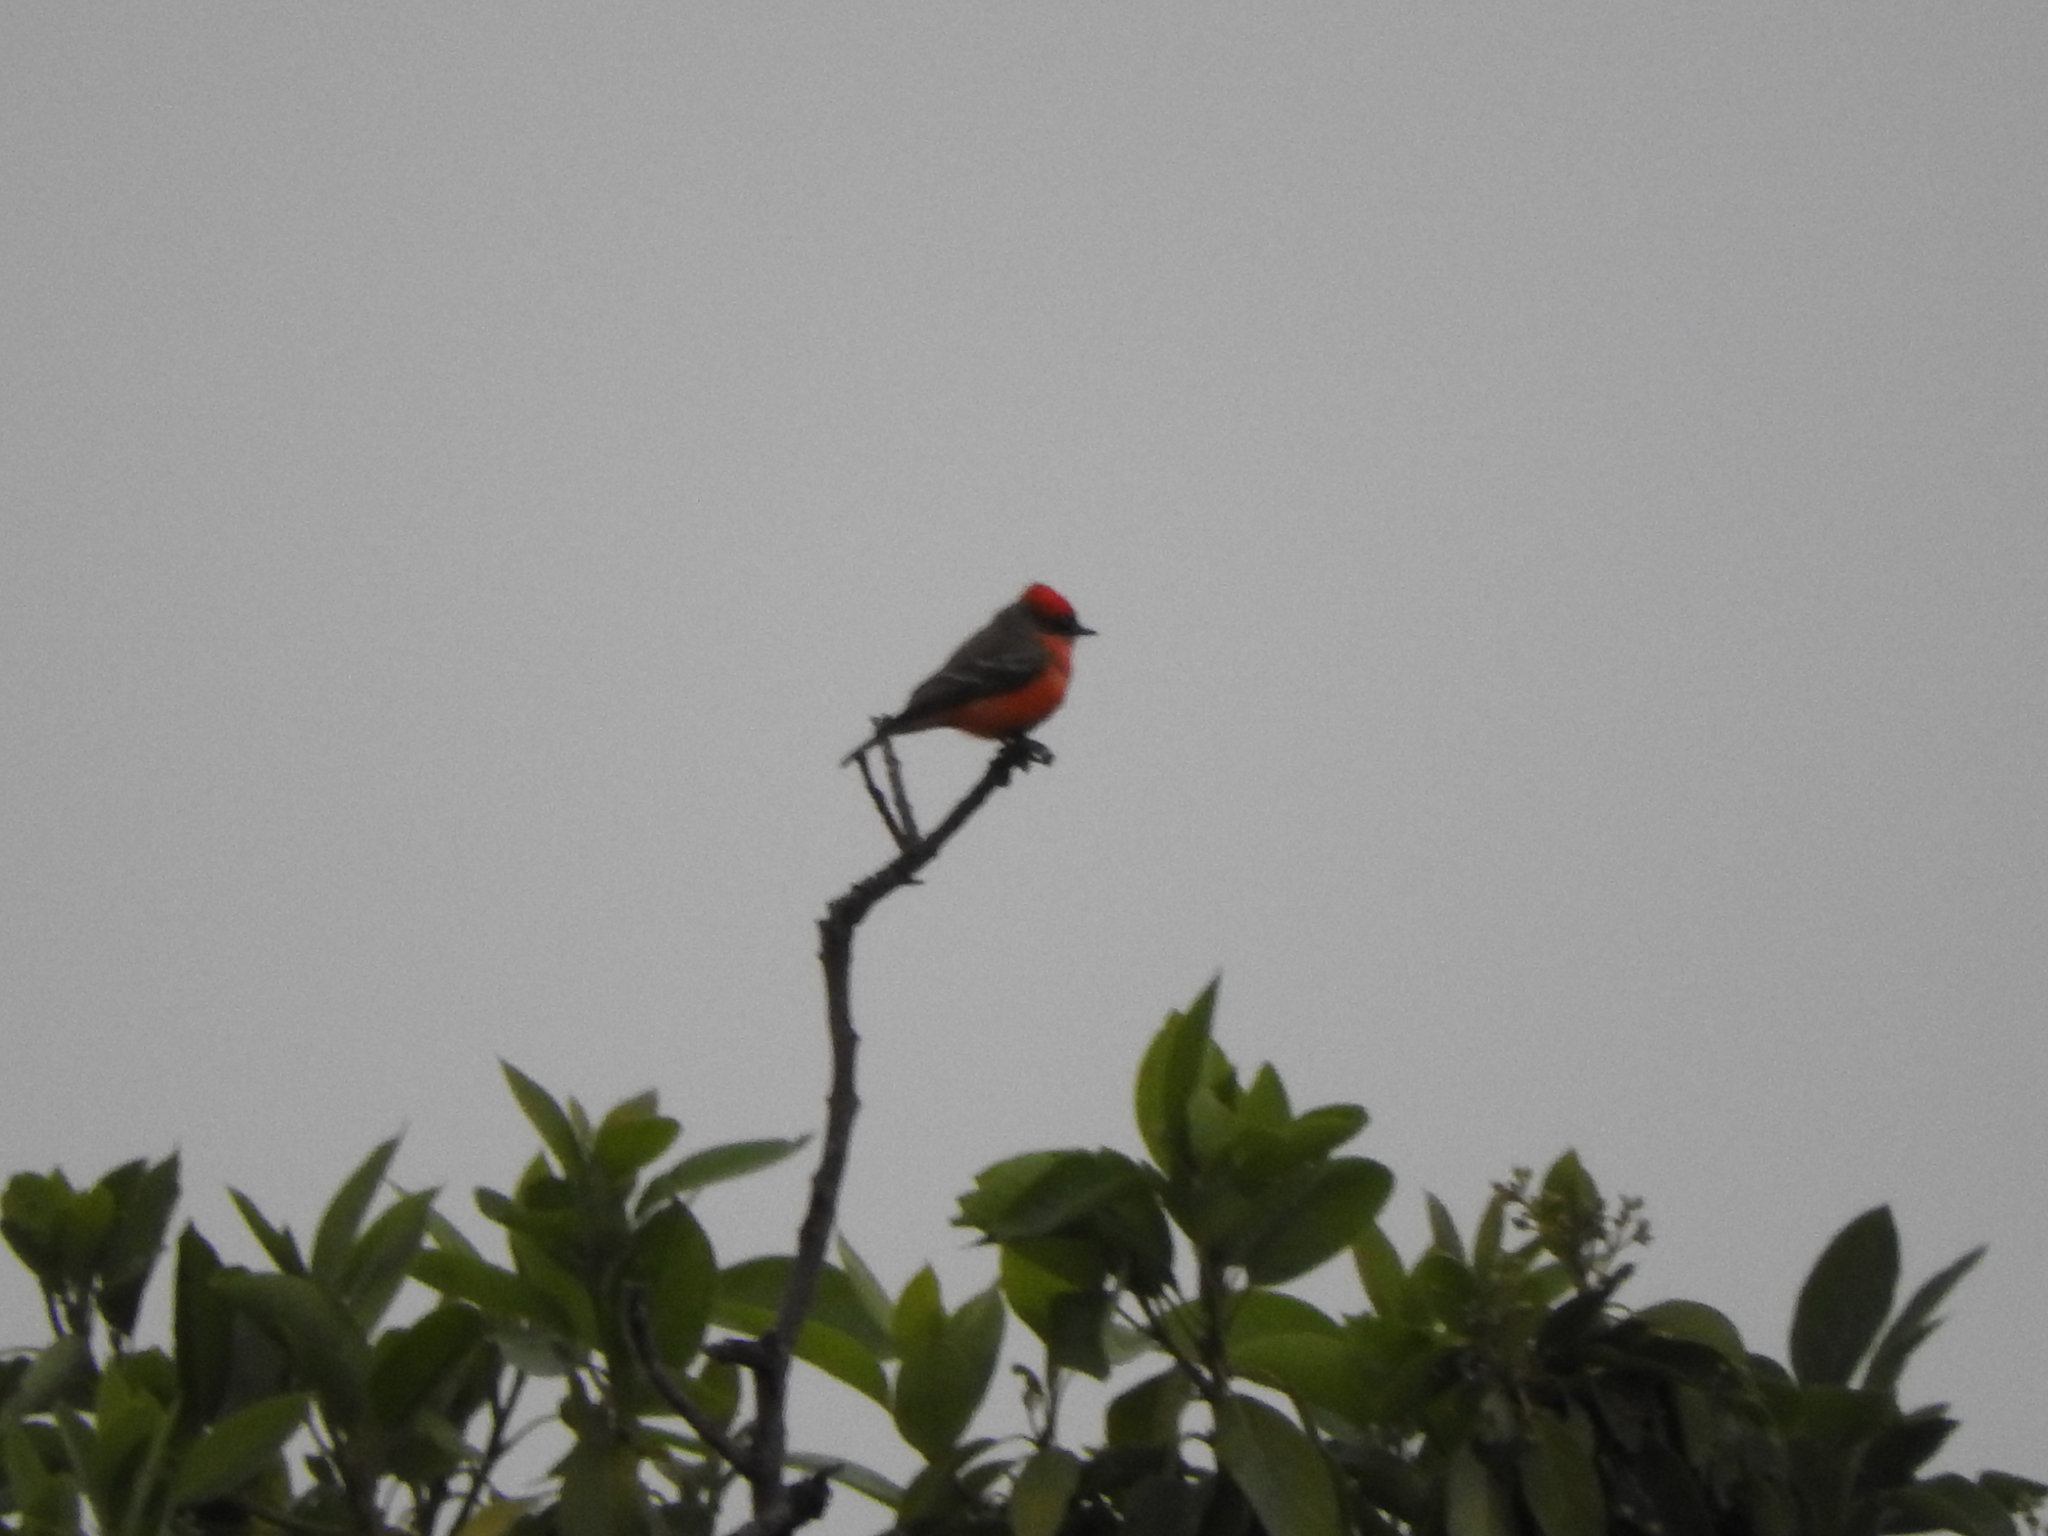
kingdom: Animalia
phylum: Chordata
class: Aves
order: Passeriformes
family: Tyrannidae
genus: Pyrocephalus
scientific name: Pyrocephalus rubinus
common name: Vermilion flycatcher
